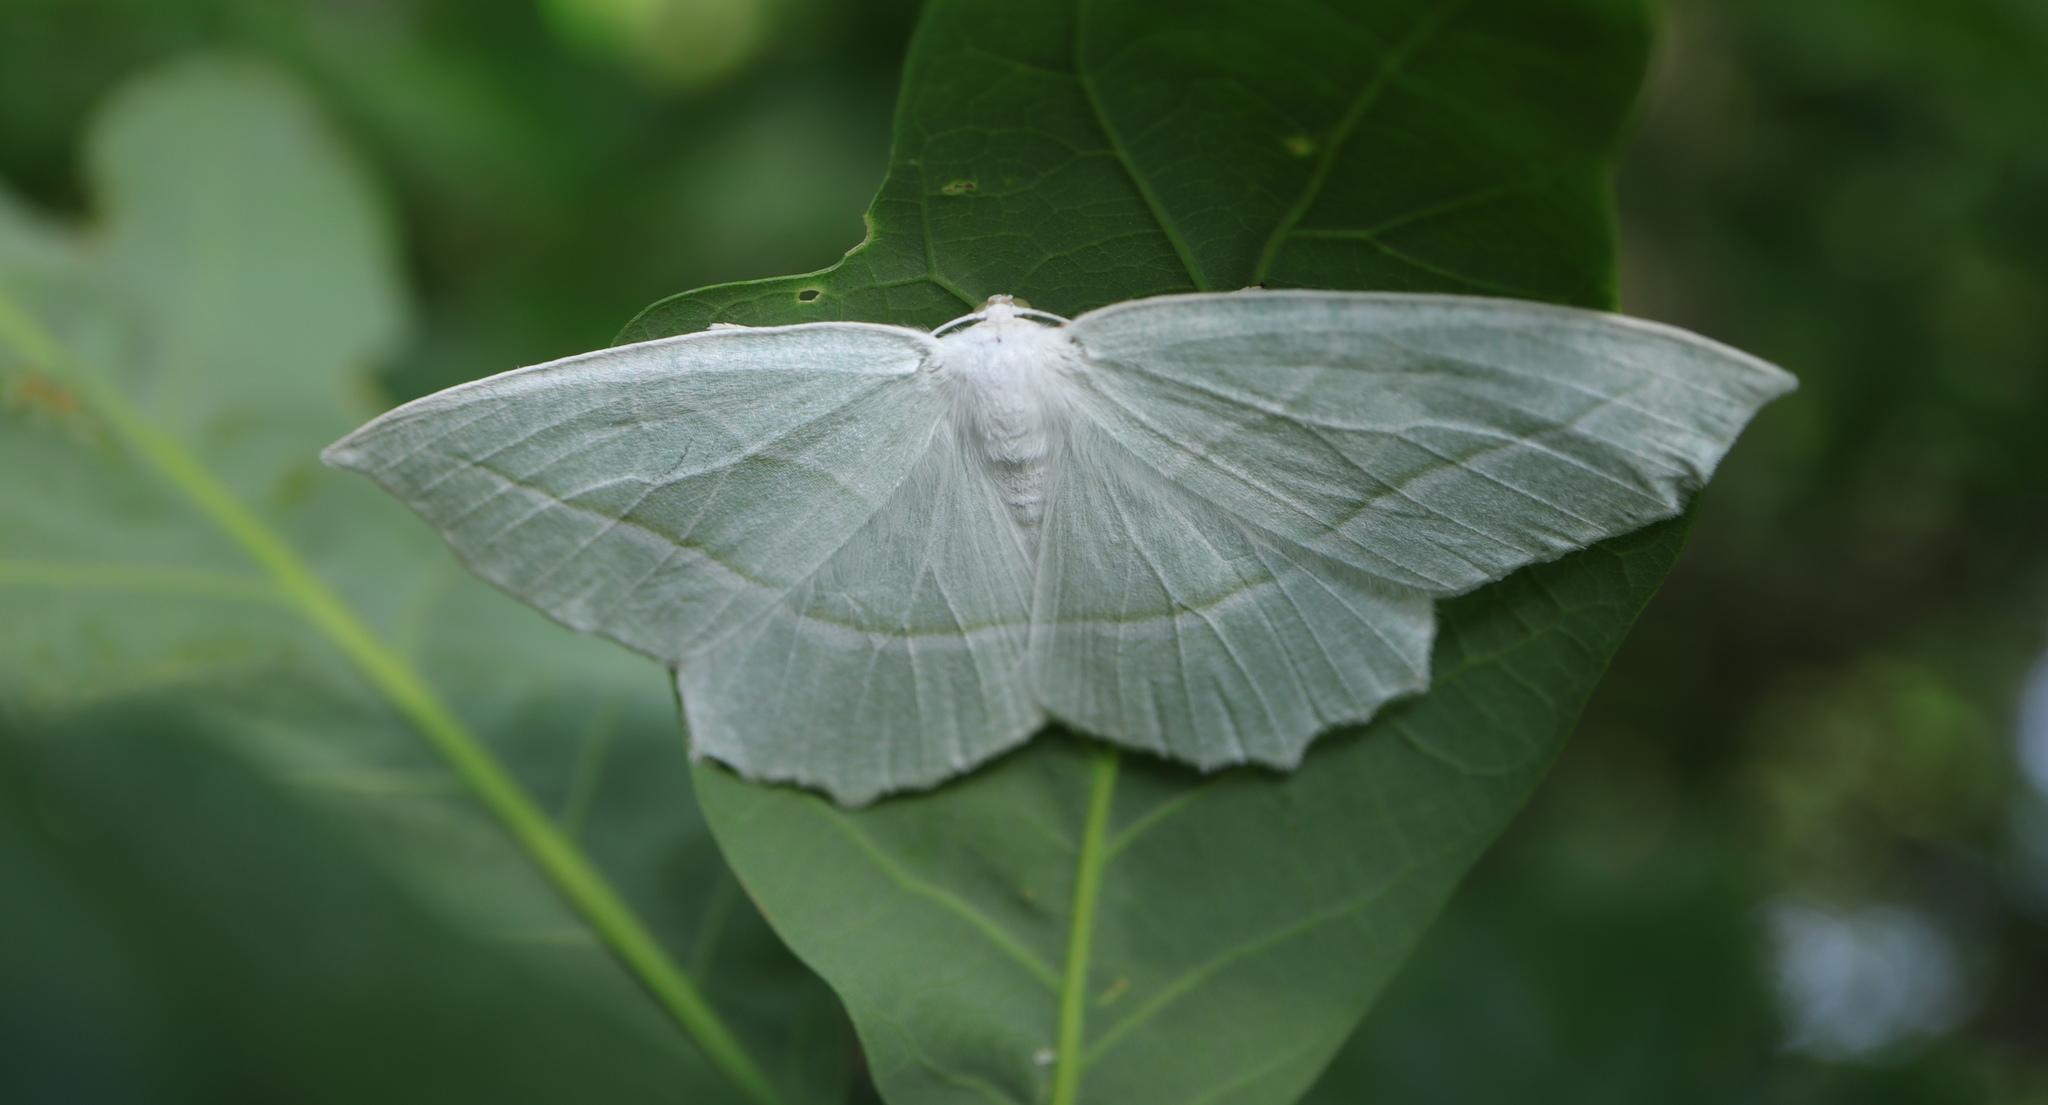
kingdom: Animalia
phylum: Arthropoda
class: Insecta
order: Lepidoptera
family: Geometridae
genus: Campaea
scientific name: Campaea perlata
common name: Fringed looper
